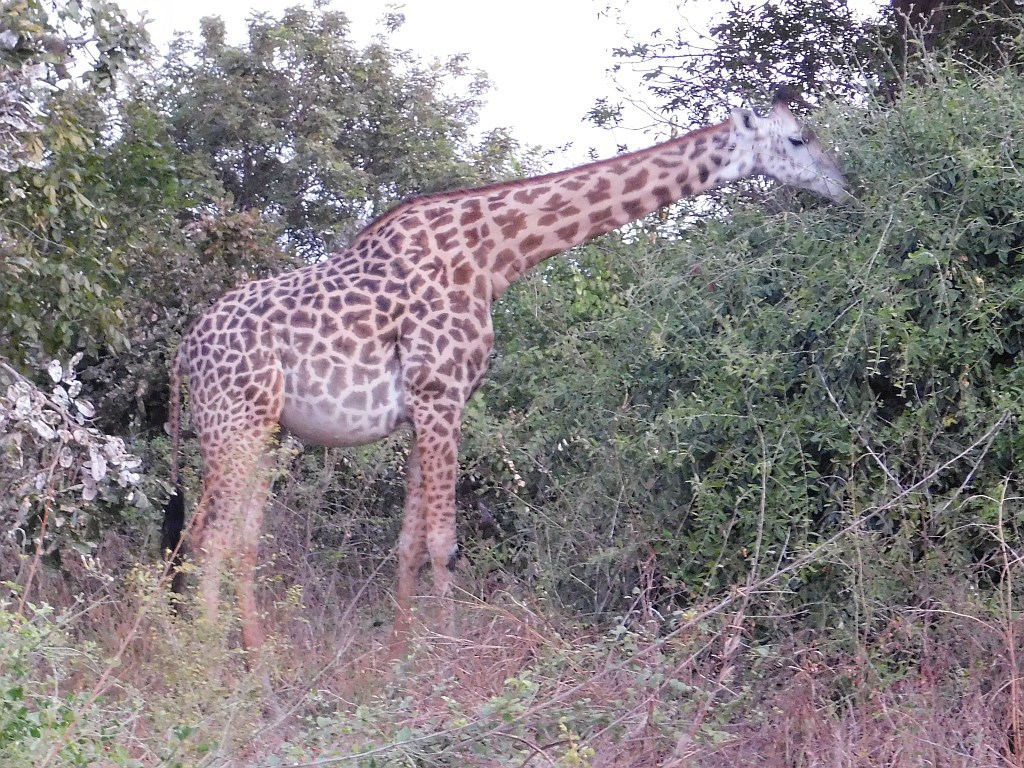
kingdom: Animalia
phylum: Chordata
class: Mammalia
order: Artiodactyla
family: Giraffidae
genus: Giraffa
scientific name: Giraffa tippelskirchi
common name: Masai giraffe
